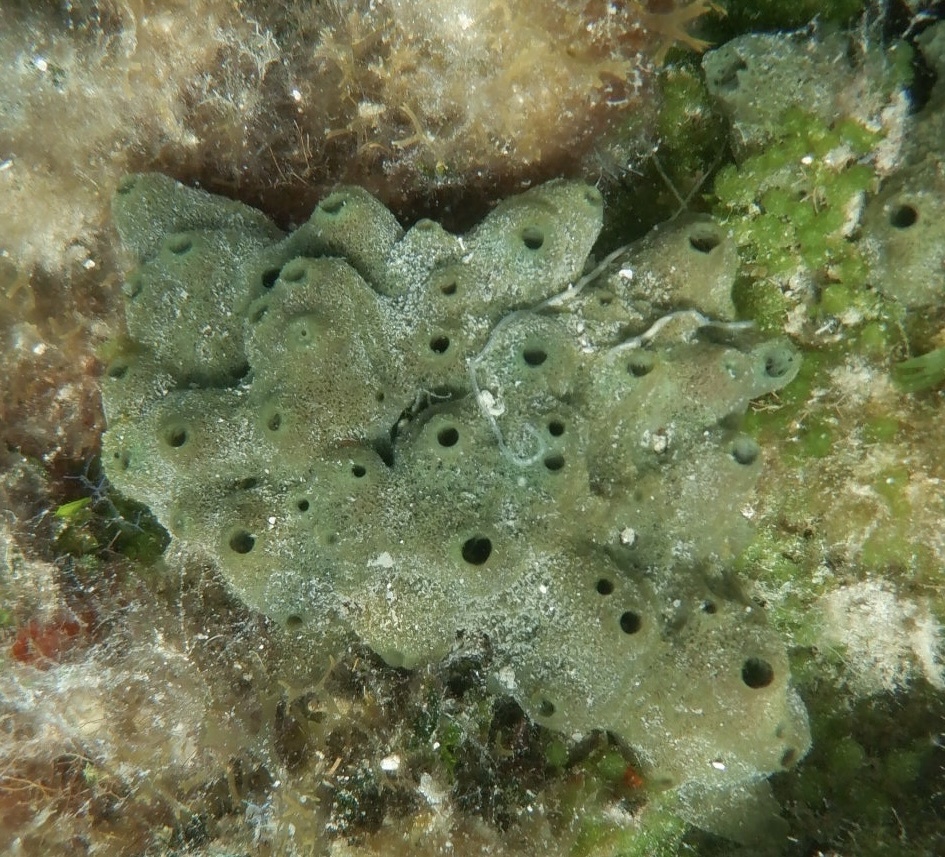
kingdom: Animalia
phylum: Porifera
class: Demospongiae
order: Haplosclerida
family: Niphatidae
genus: Amphimedon
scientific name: Amphimedon viridis
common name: Green sponge
